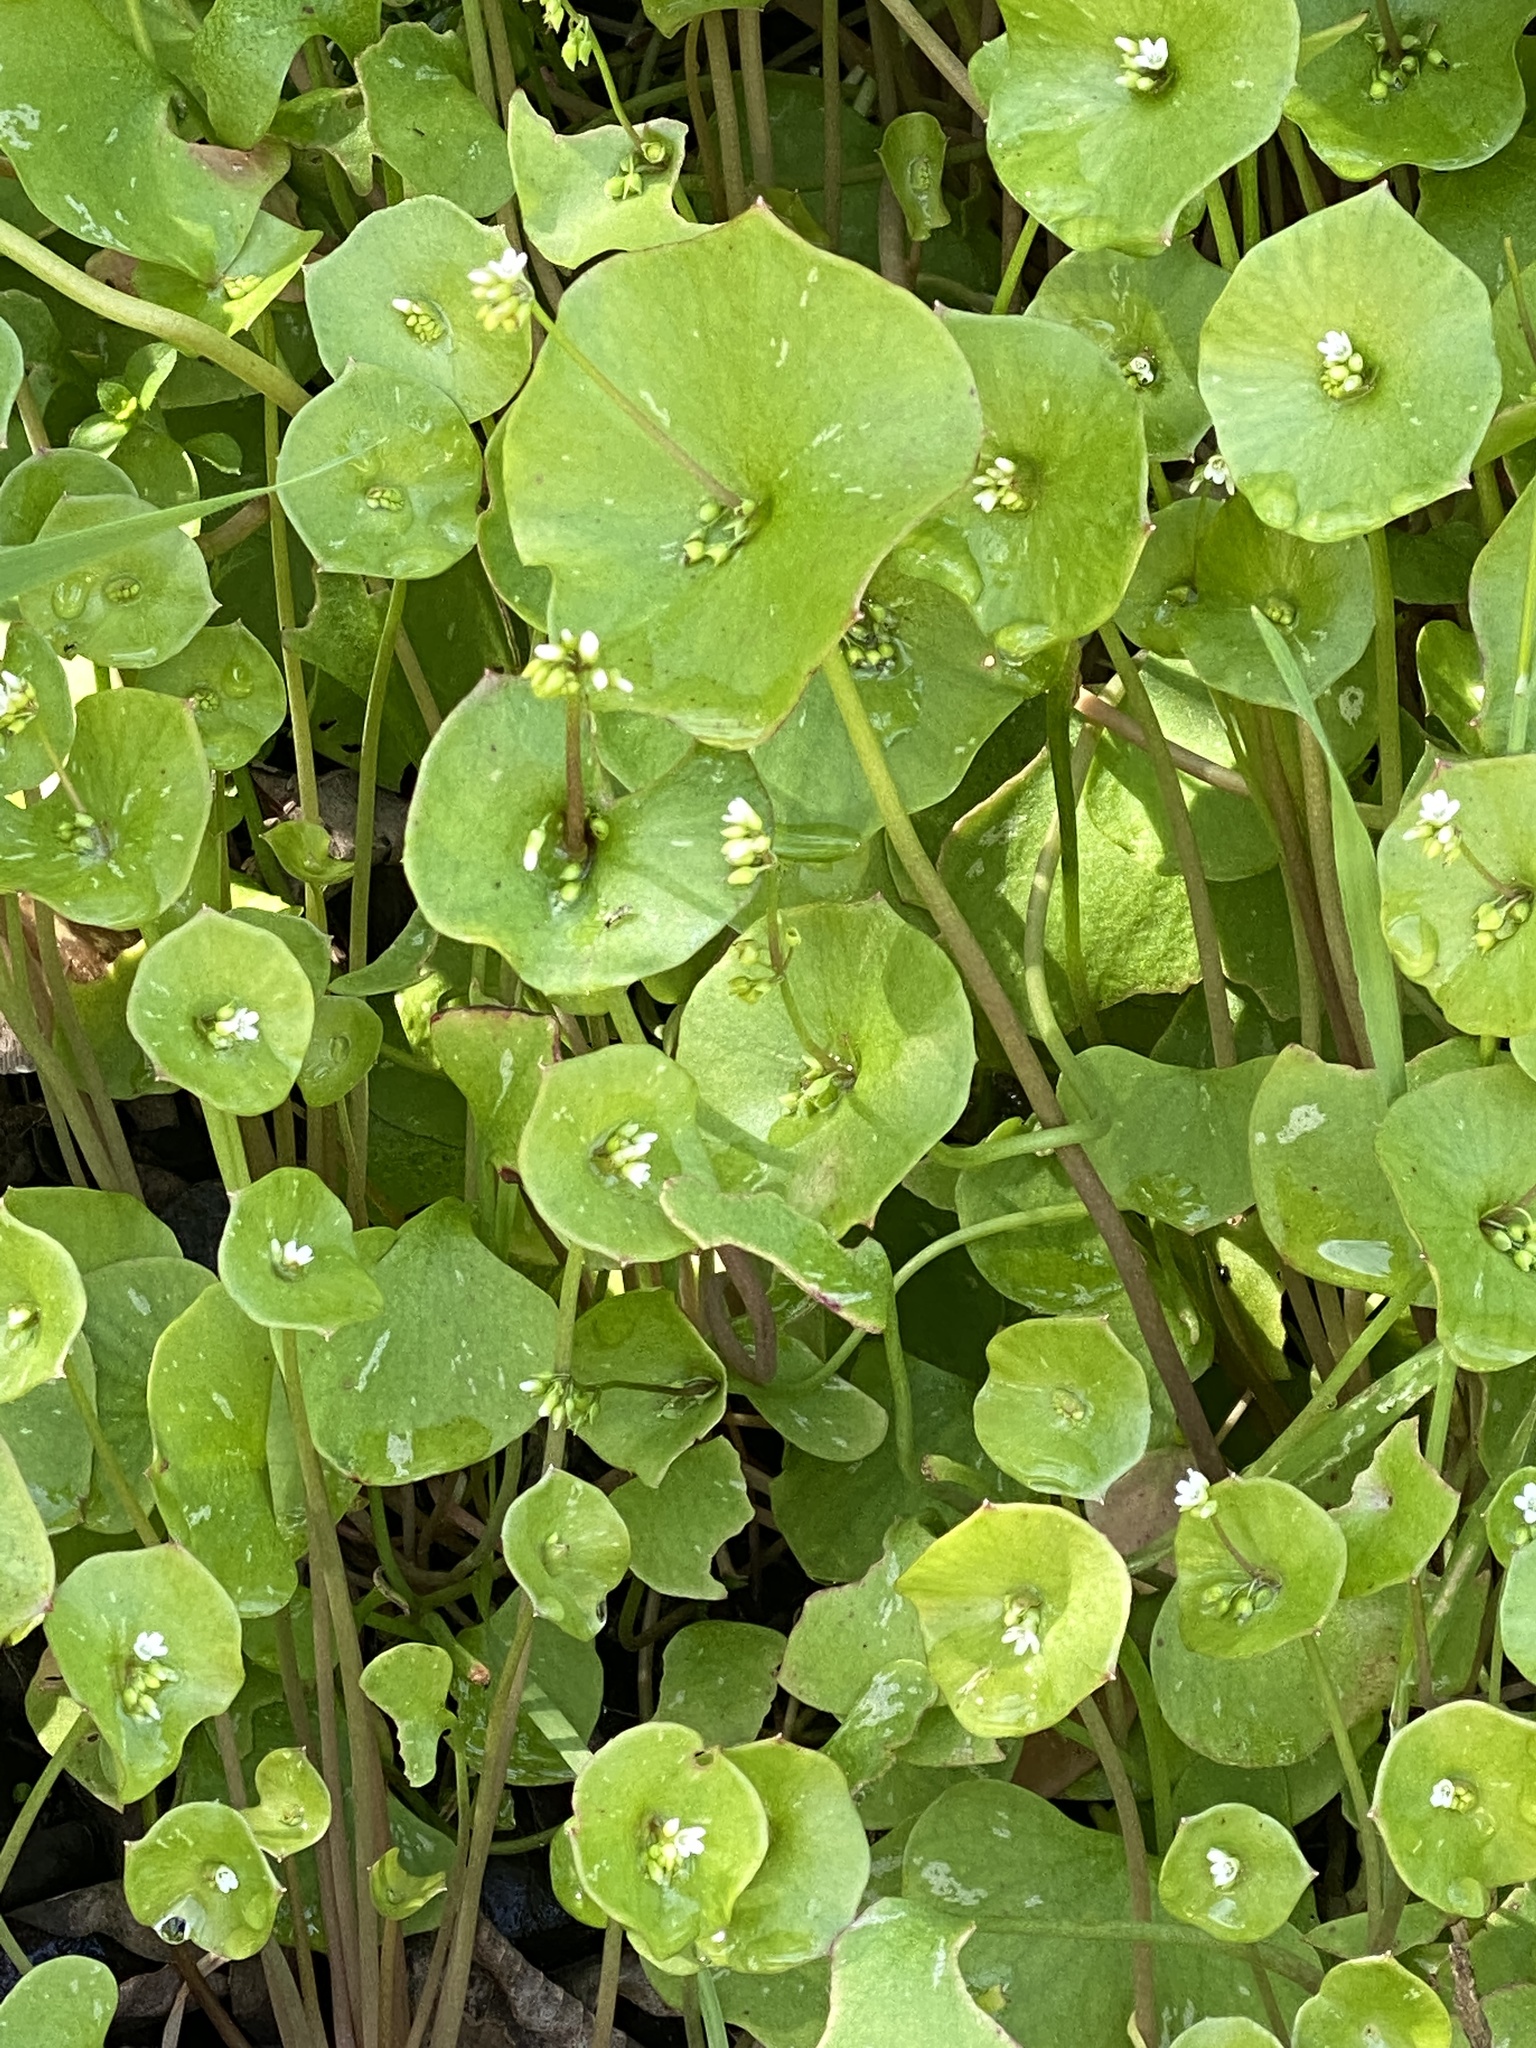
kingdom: Plantae
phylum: Tracheophyta
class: Magnoliopsida
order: Caryophyllales
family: Montiaceae
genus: Claytonia
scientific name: Claytonia perfoliata
